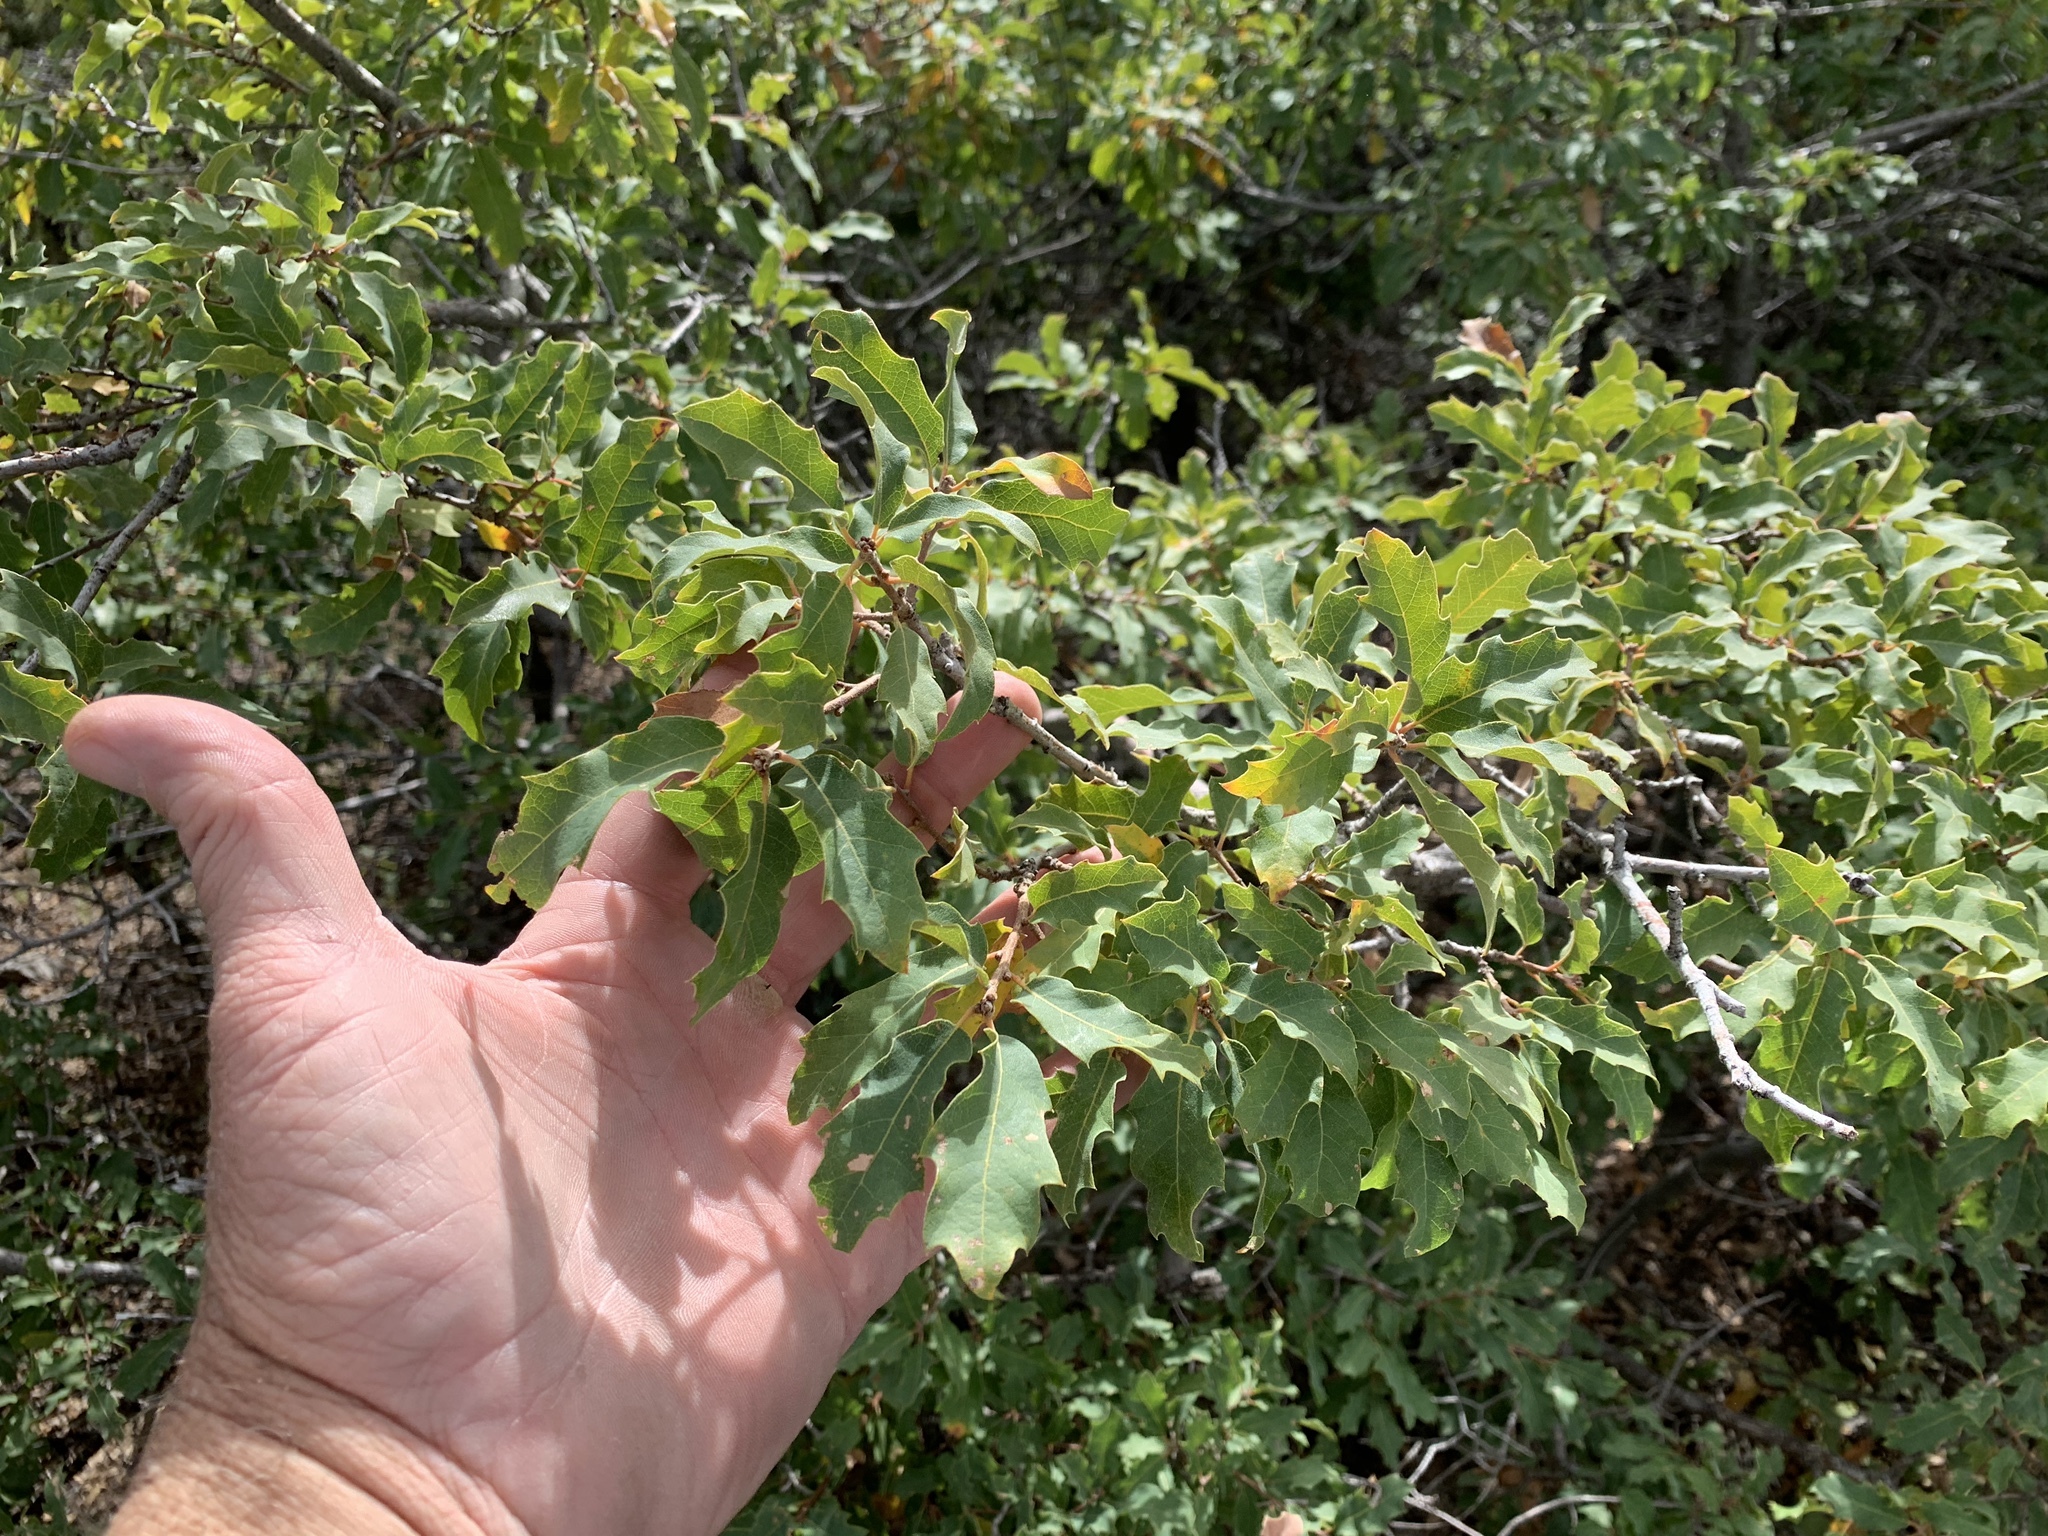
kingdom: Plantae
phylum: Tracheophyta
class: Magnoliopsida
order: Fagales
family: Fagaceae
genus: Quercus
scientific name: Quercus undulata
